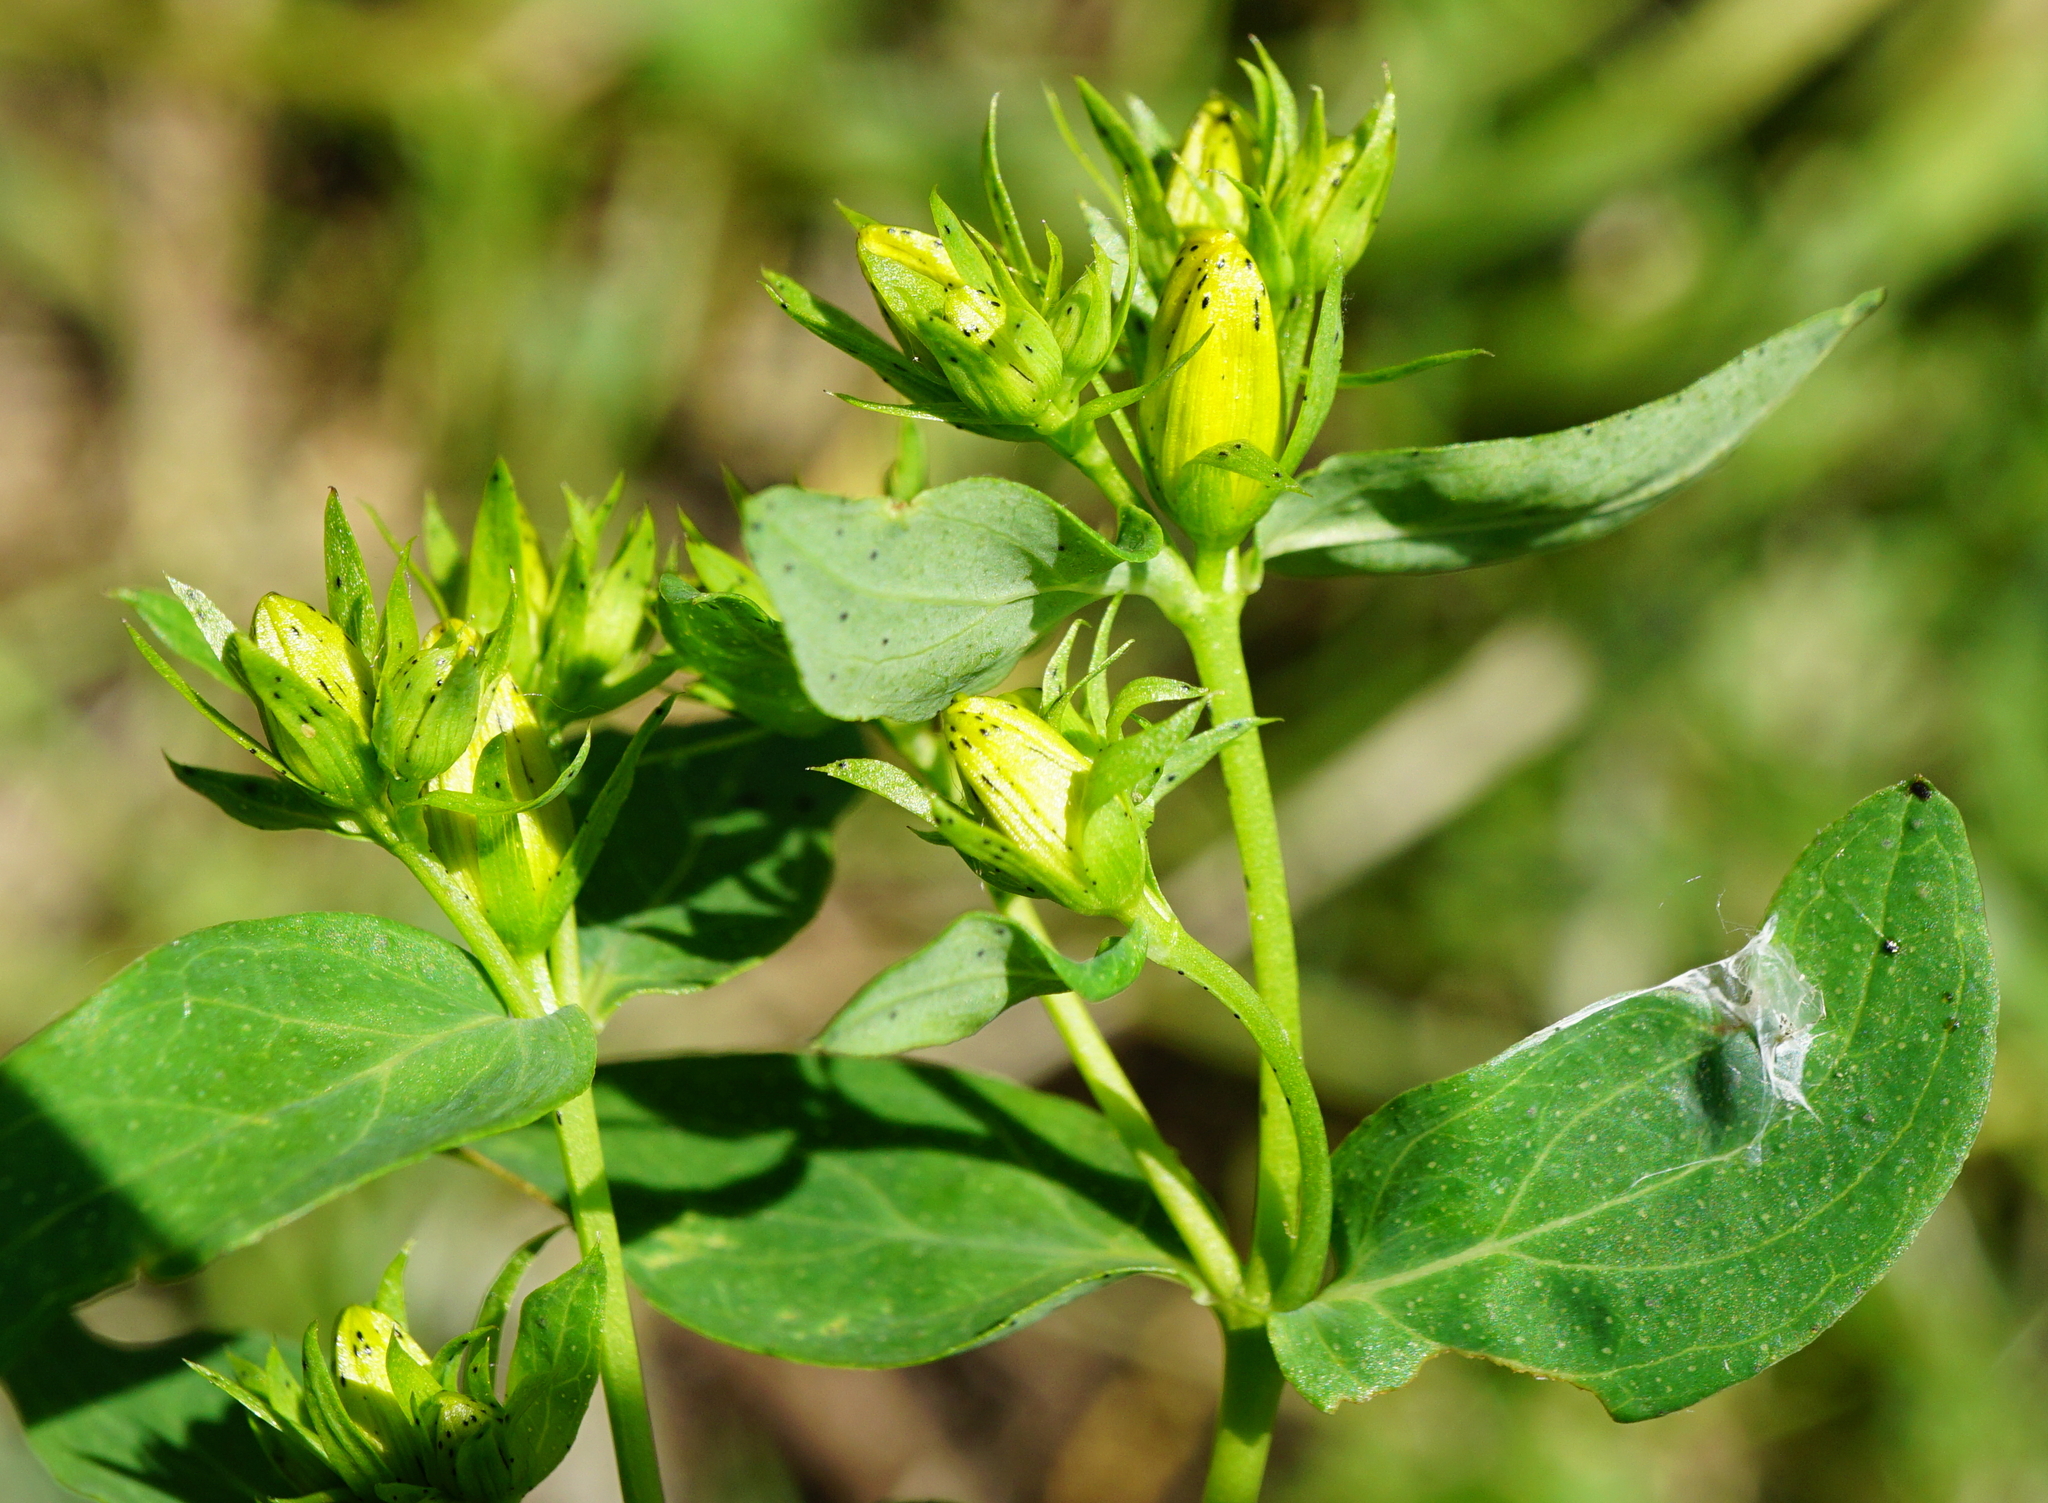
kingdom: Plantae
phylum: Tracheophyta
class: Magnoliopsida
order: Malpighiales
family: Hypericaceae
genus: Hypericum
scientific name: Hypericum desetangsii
